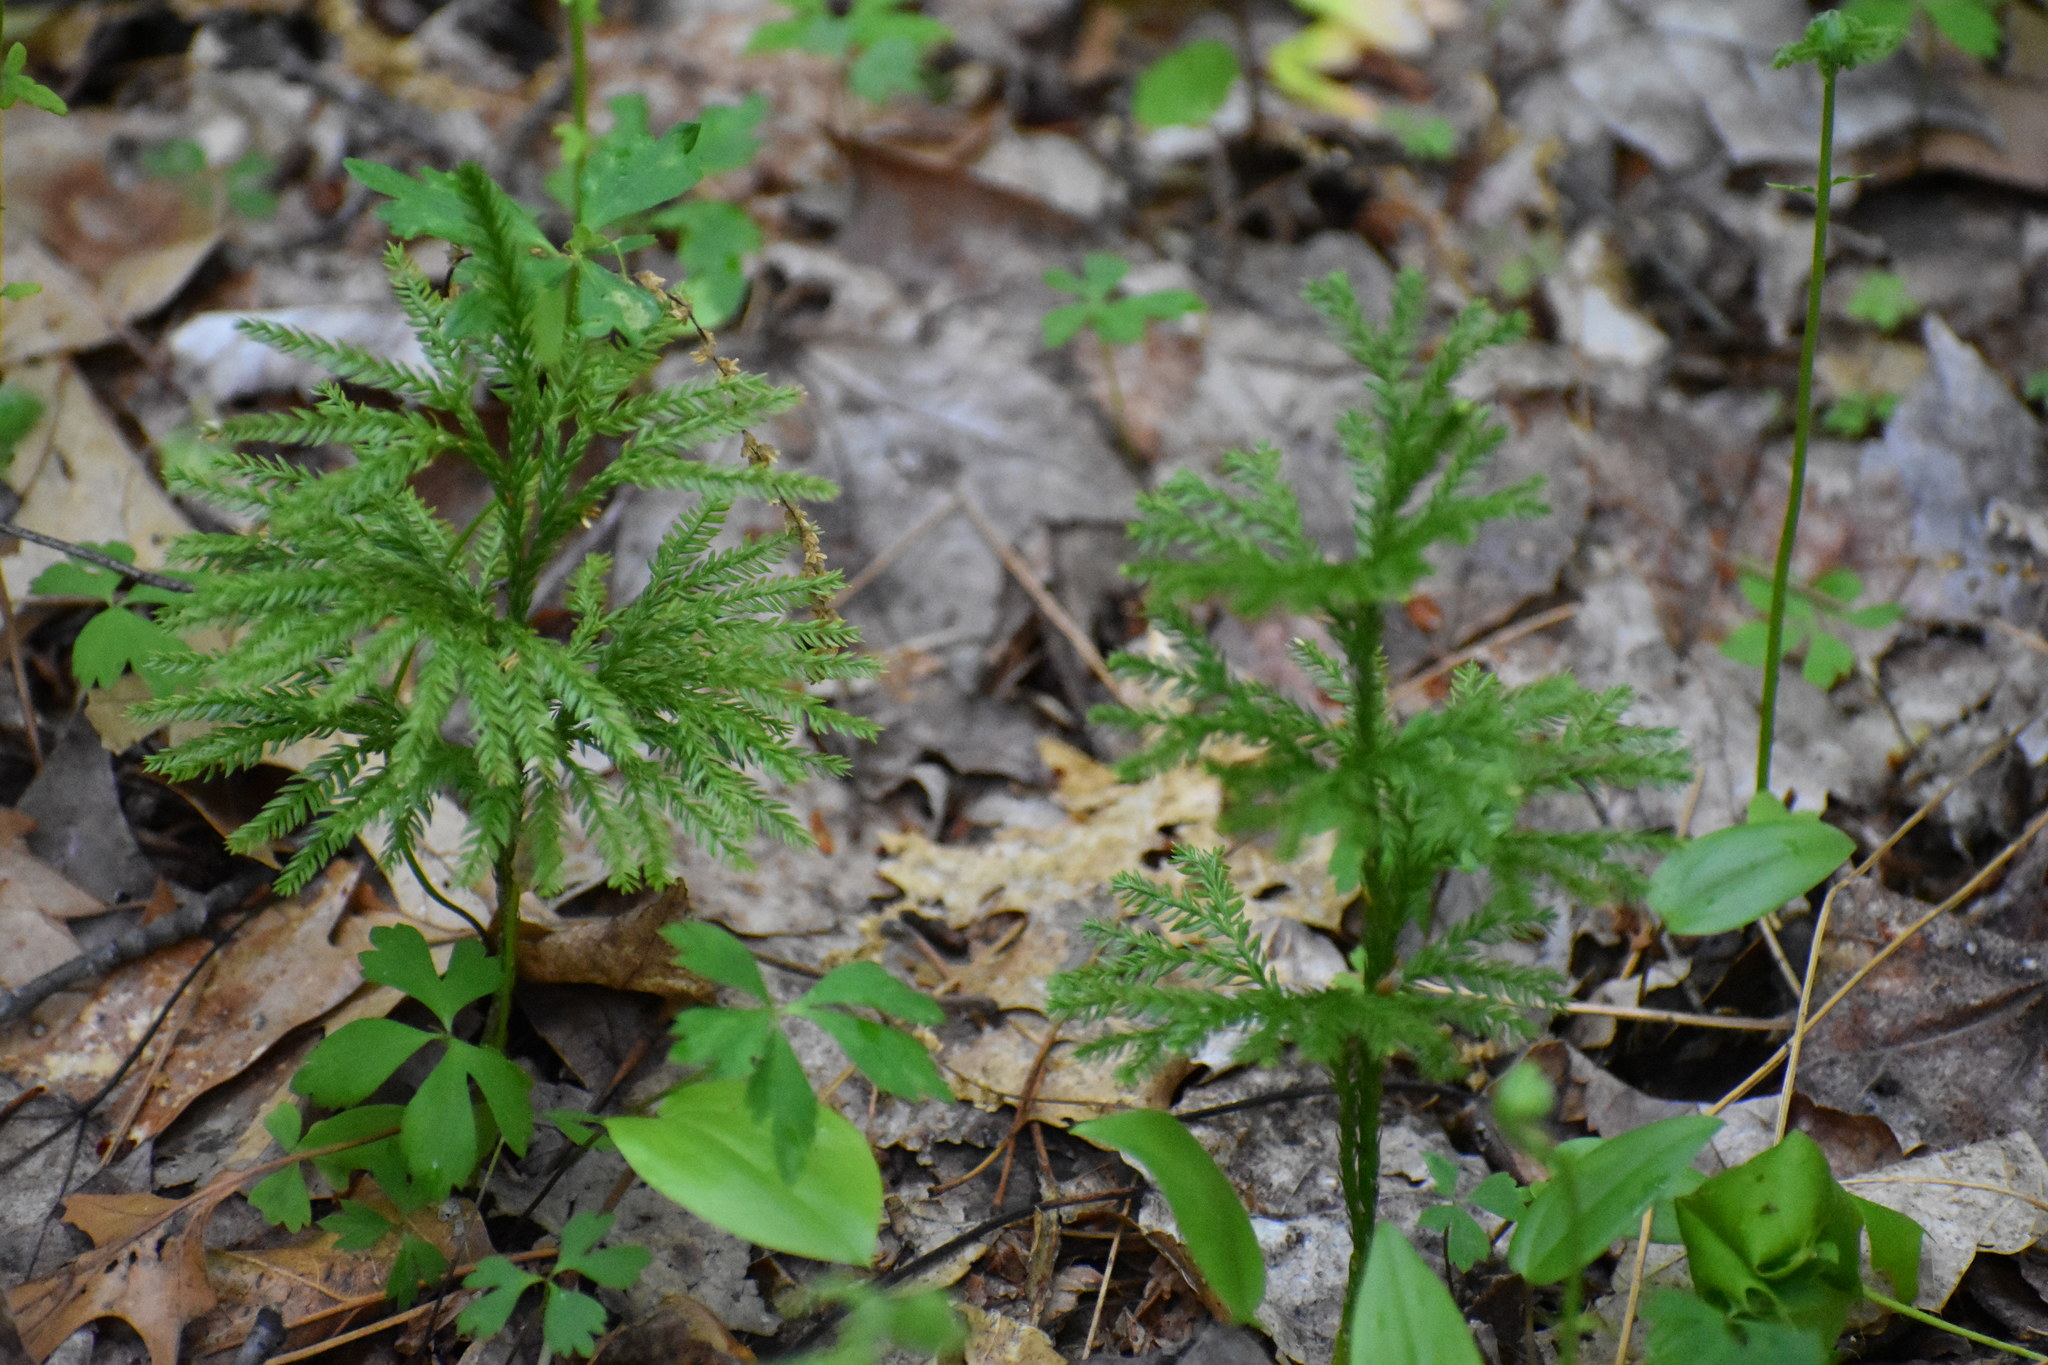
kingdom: Plantae
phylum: Tracheophyta
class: Lycopodiopsida
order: Lycopodiales
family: Lycopodiaceae
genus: Dendrolycopodium
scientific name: Dendrolycopodium obscurum
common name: Common ground-pine
